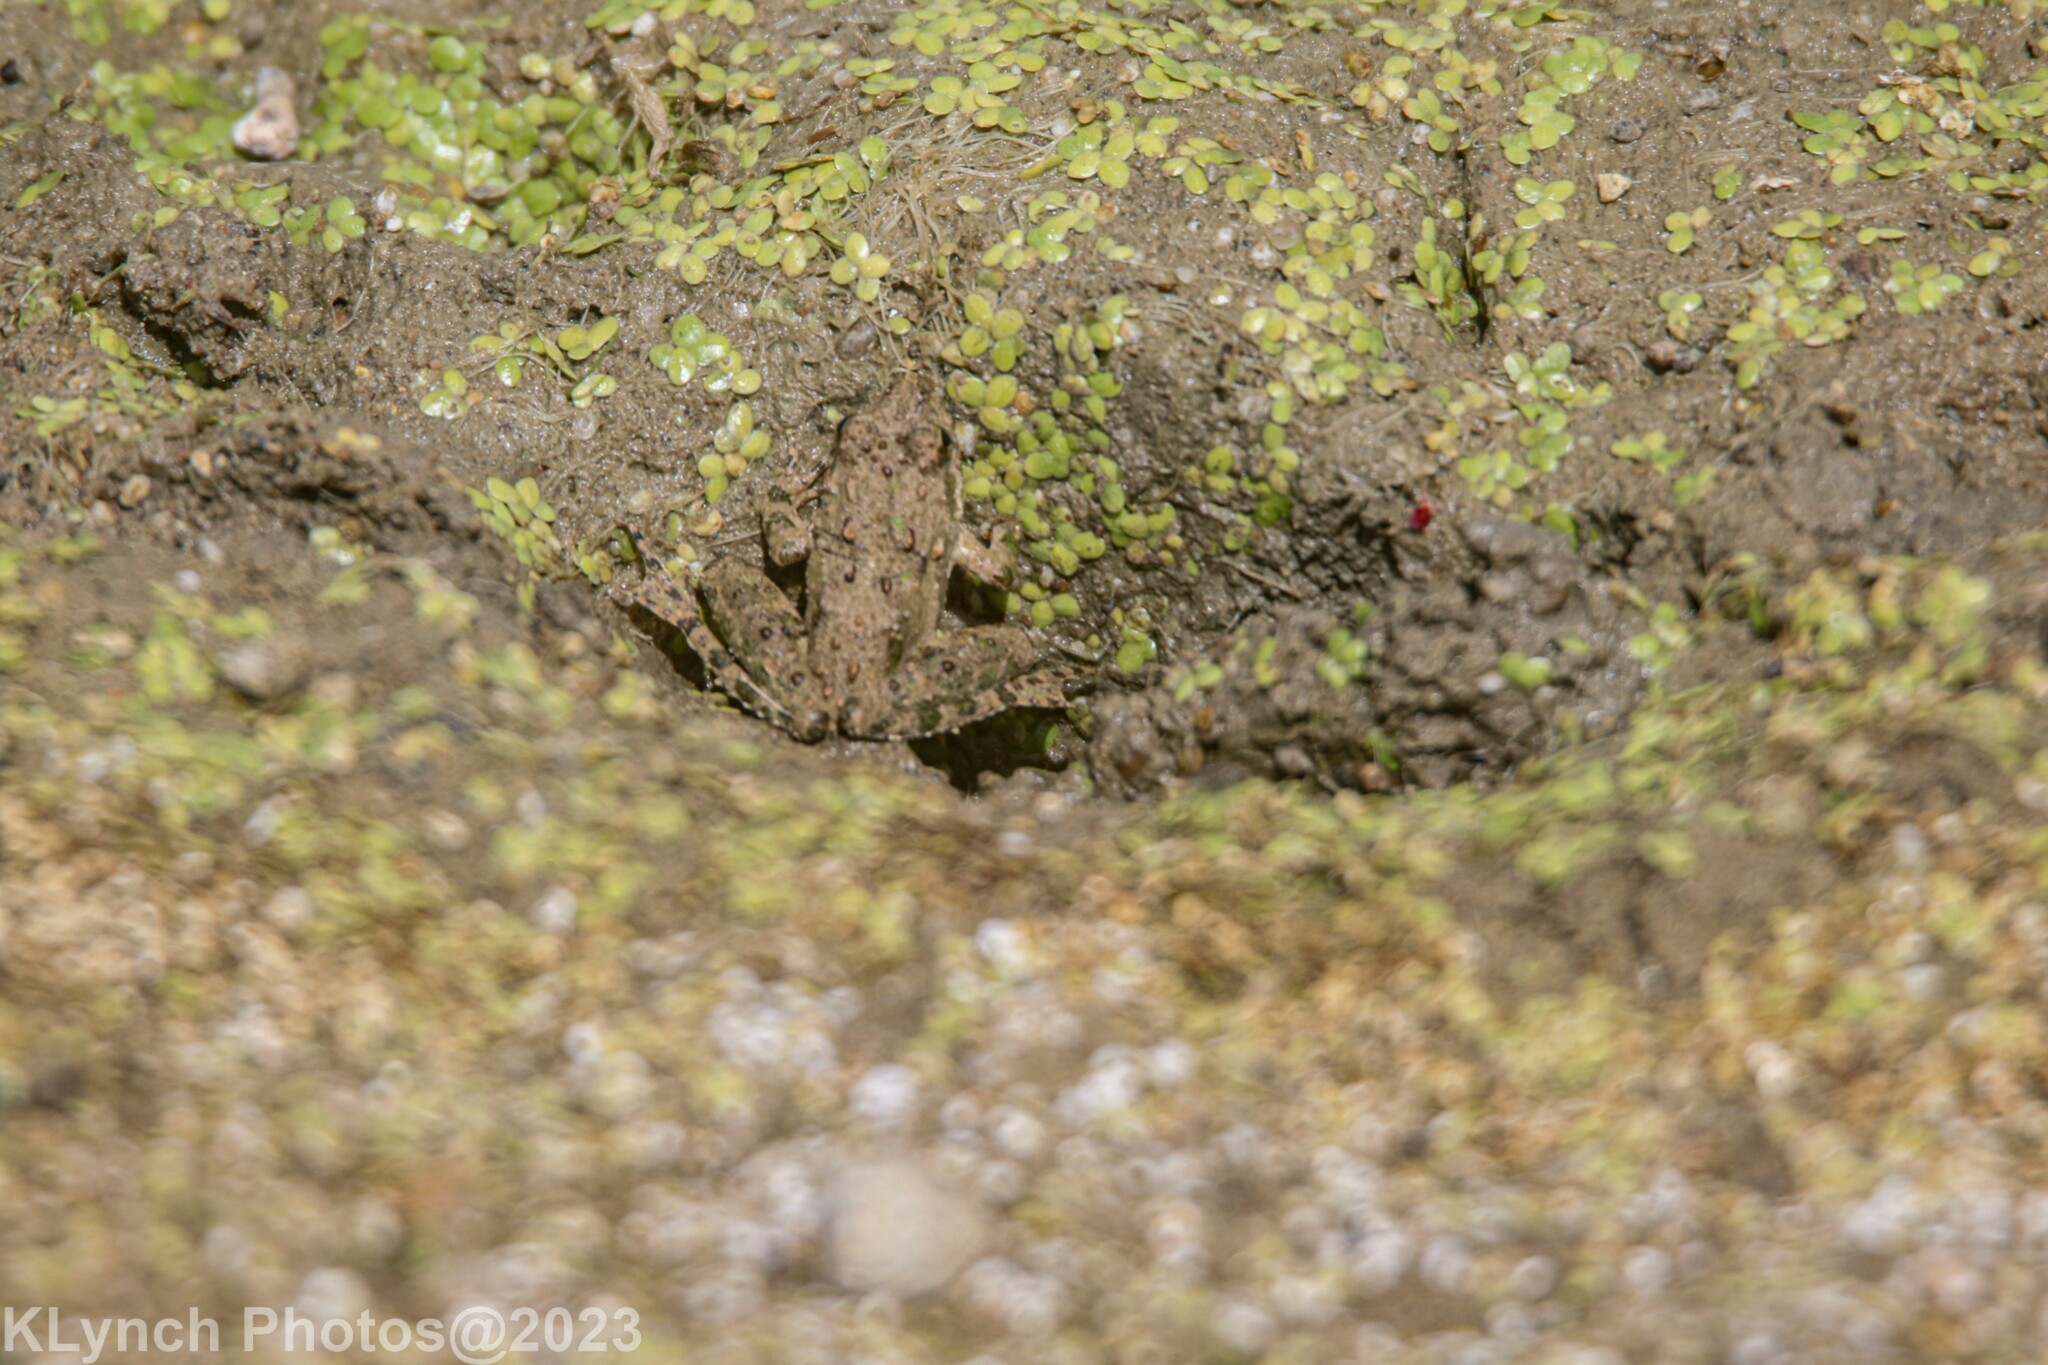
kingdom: Animalia
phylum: Chordata
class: Amphibia
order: Anura
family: Hylidae
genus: Acris
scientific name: Acris blanchardi
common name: Blanchard's cricket frog
